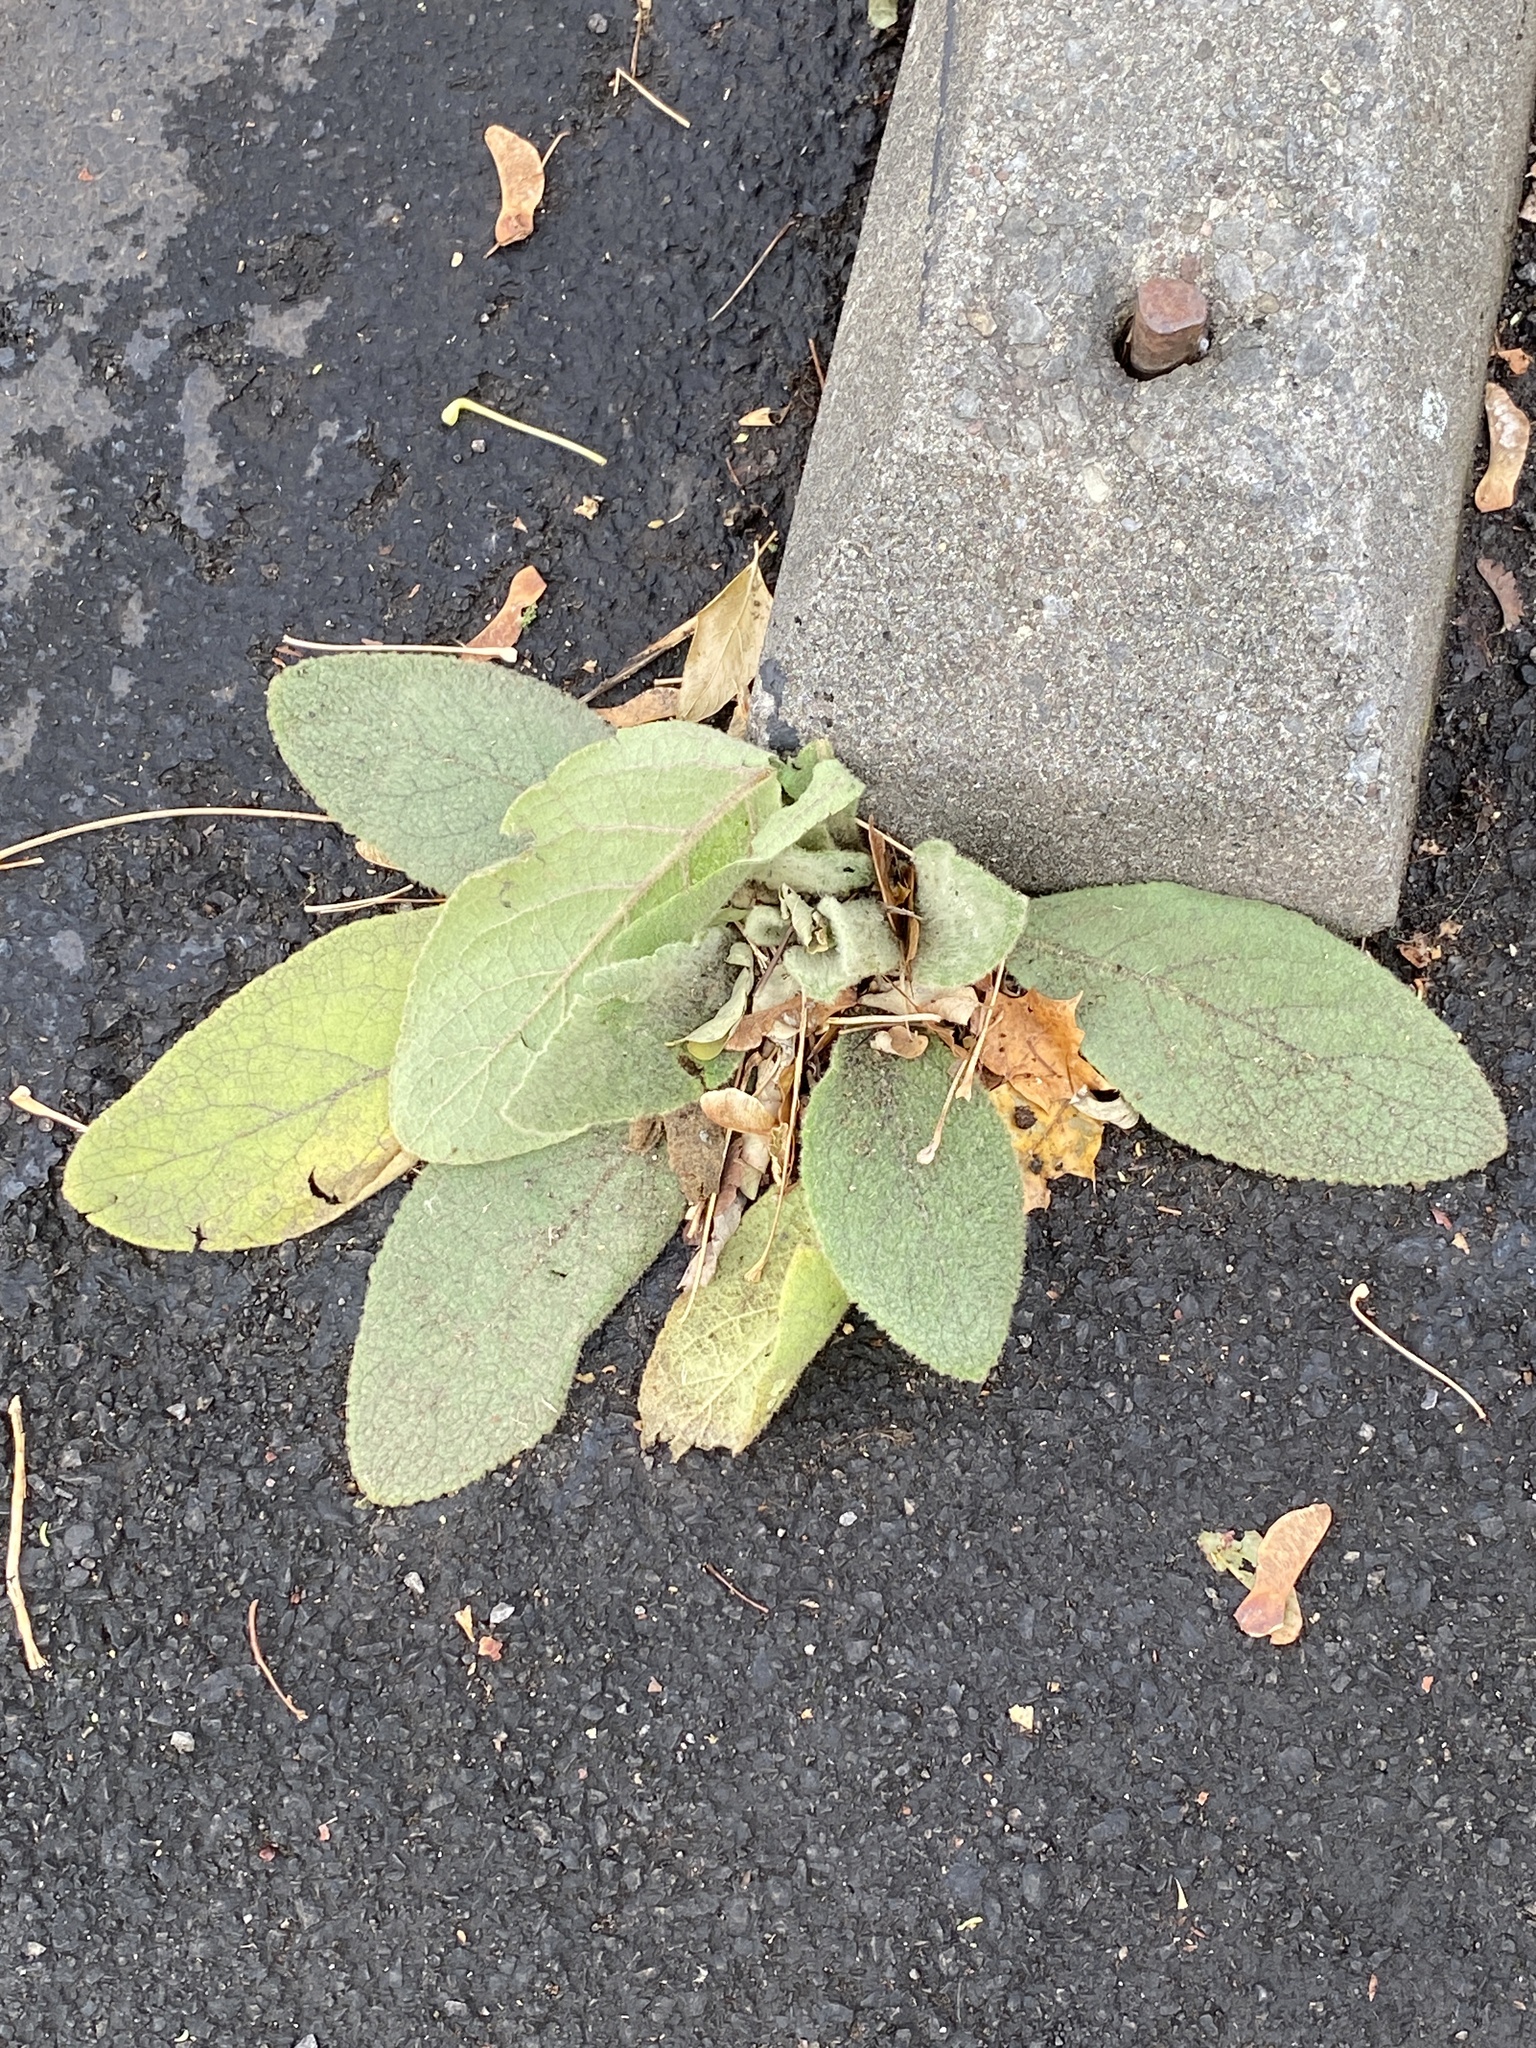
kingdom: Plantae
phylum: Tracheophyta
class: Magnoliopsida
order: Lamiales
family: Scrophulariaceae
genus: Verbascum
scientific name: Verbascum thapsus
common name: Common mullein
